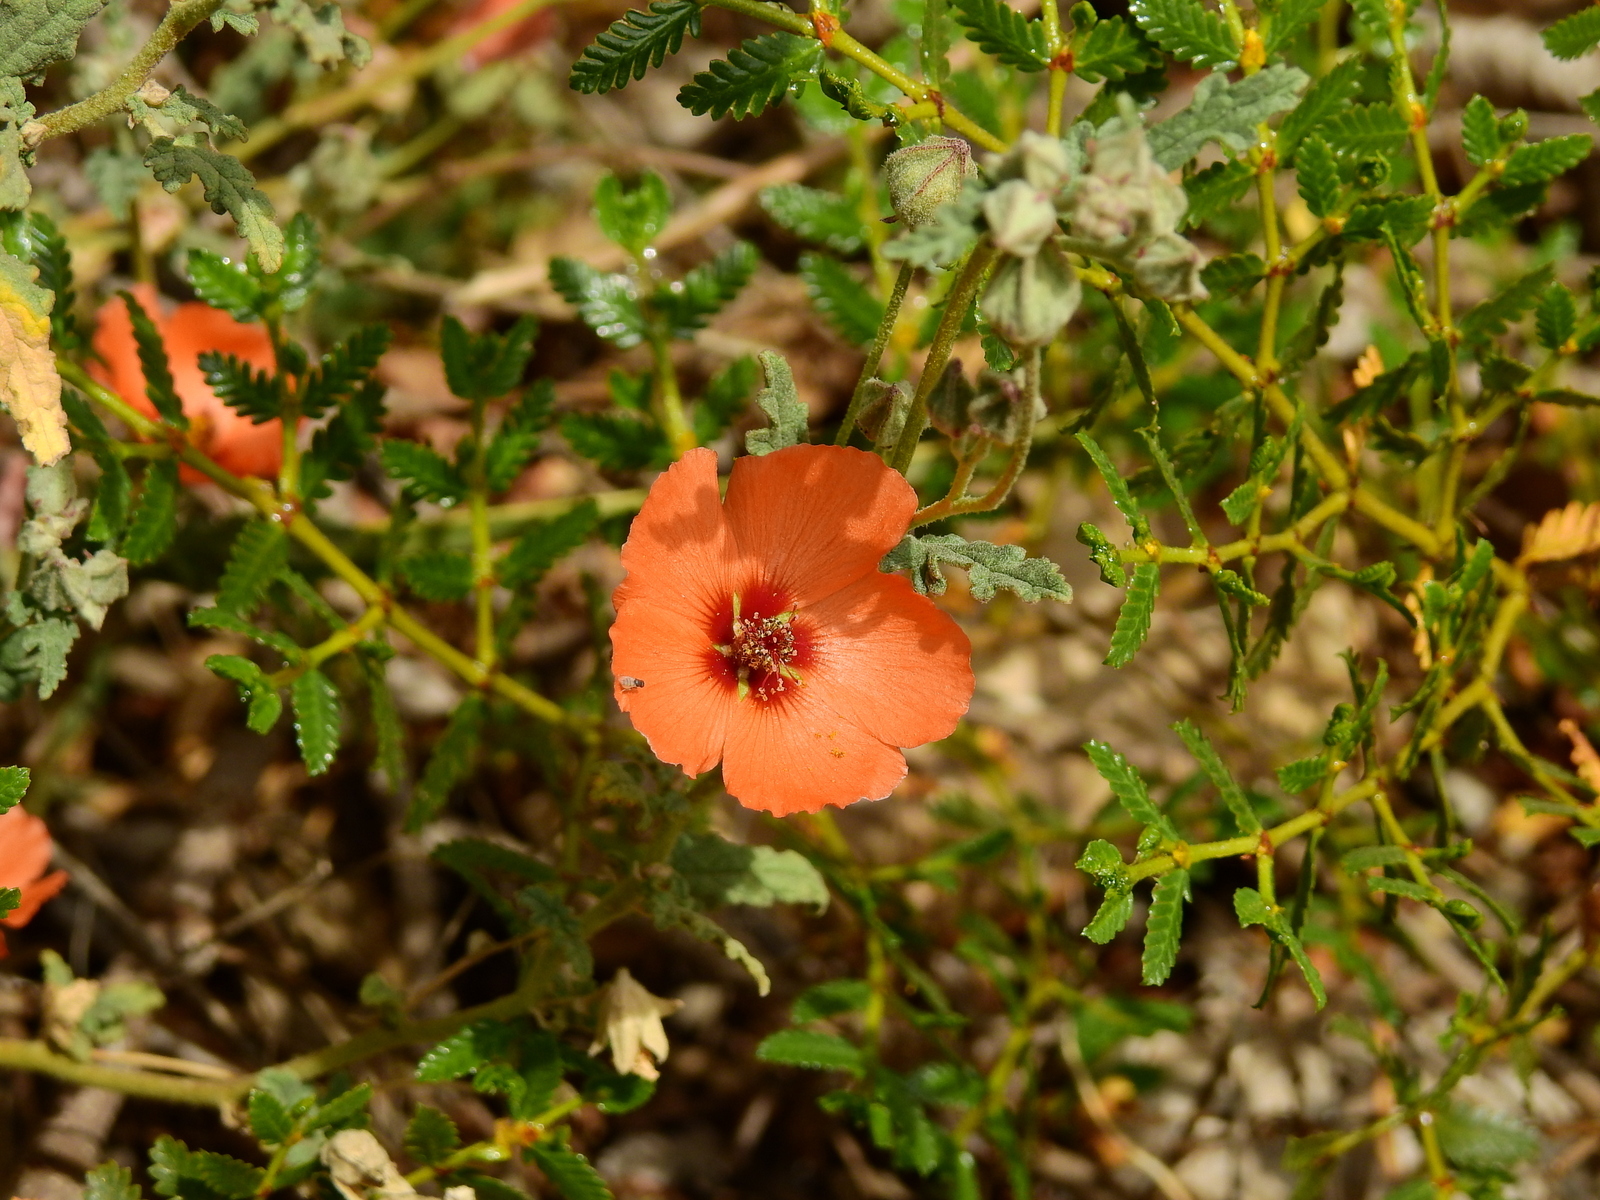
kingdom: Plantae
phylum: Tracheophyta
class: Magnoliopsida
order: Malvales
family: Malvaceae
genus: Sphaeralcea
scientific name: Sphaeralcea miniata
